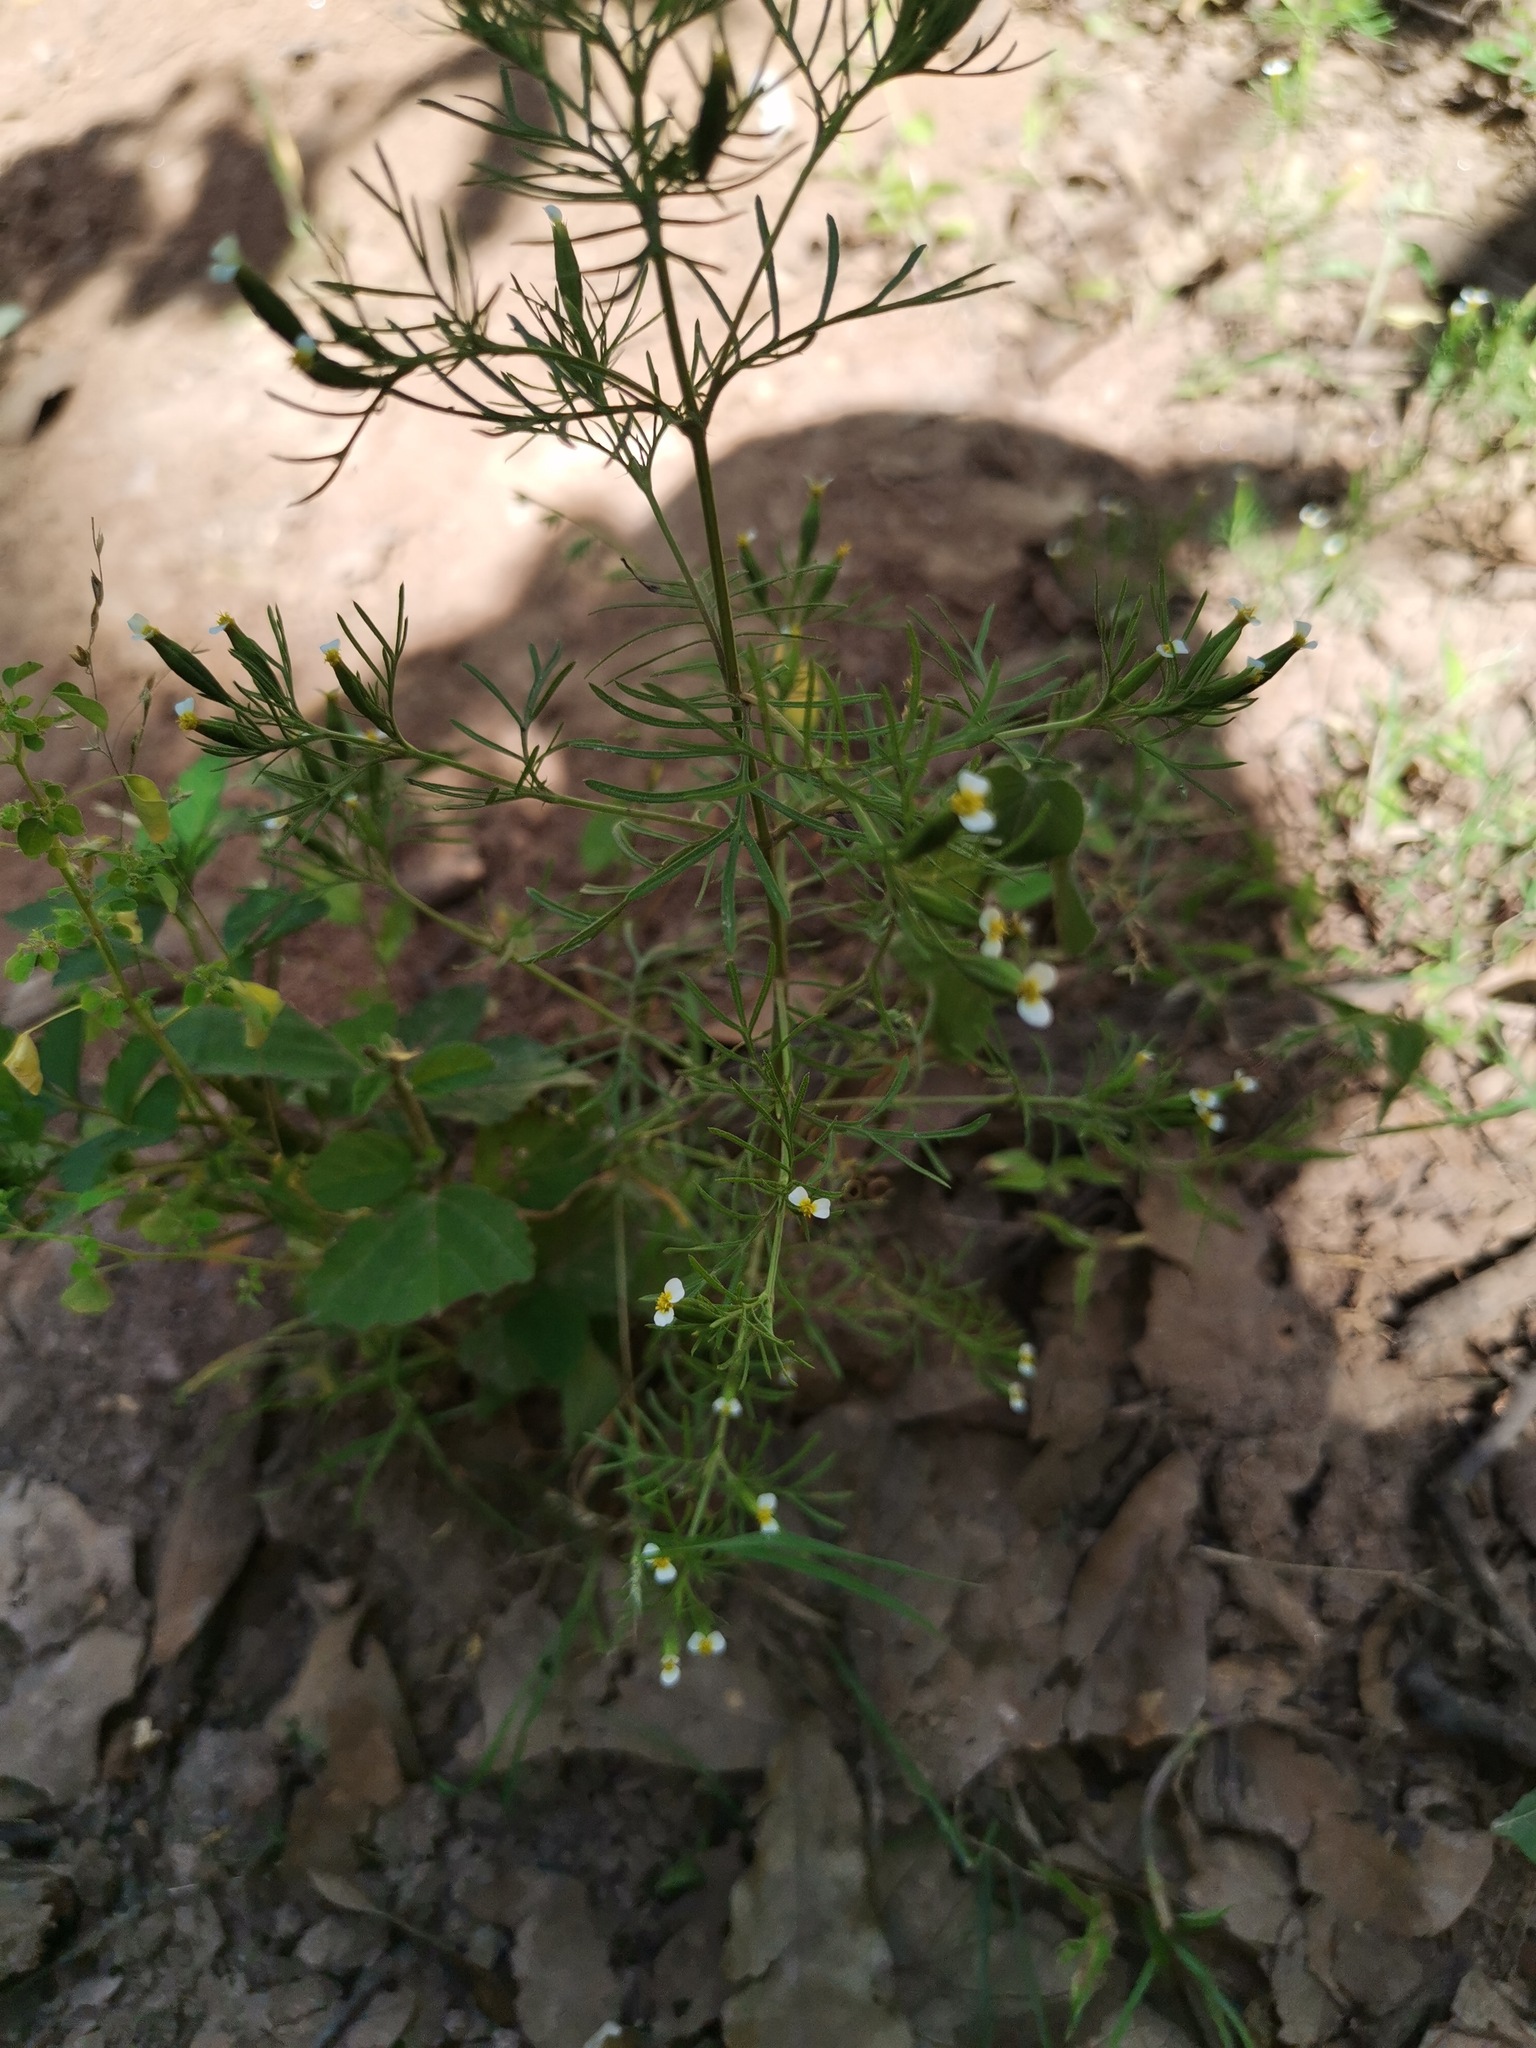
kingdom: Plantae
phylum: Tracheophyta
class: Magnoliopsida
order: Asterales
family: Asteraceae
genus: Tagetes
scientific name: Tagetes filifolia
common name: Lesser marigold
